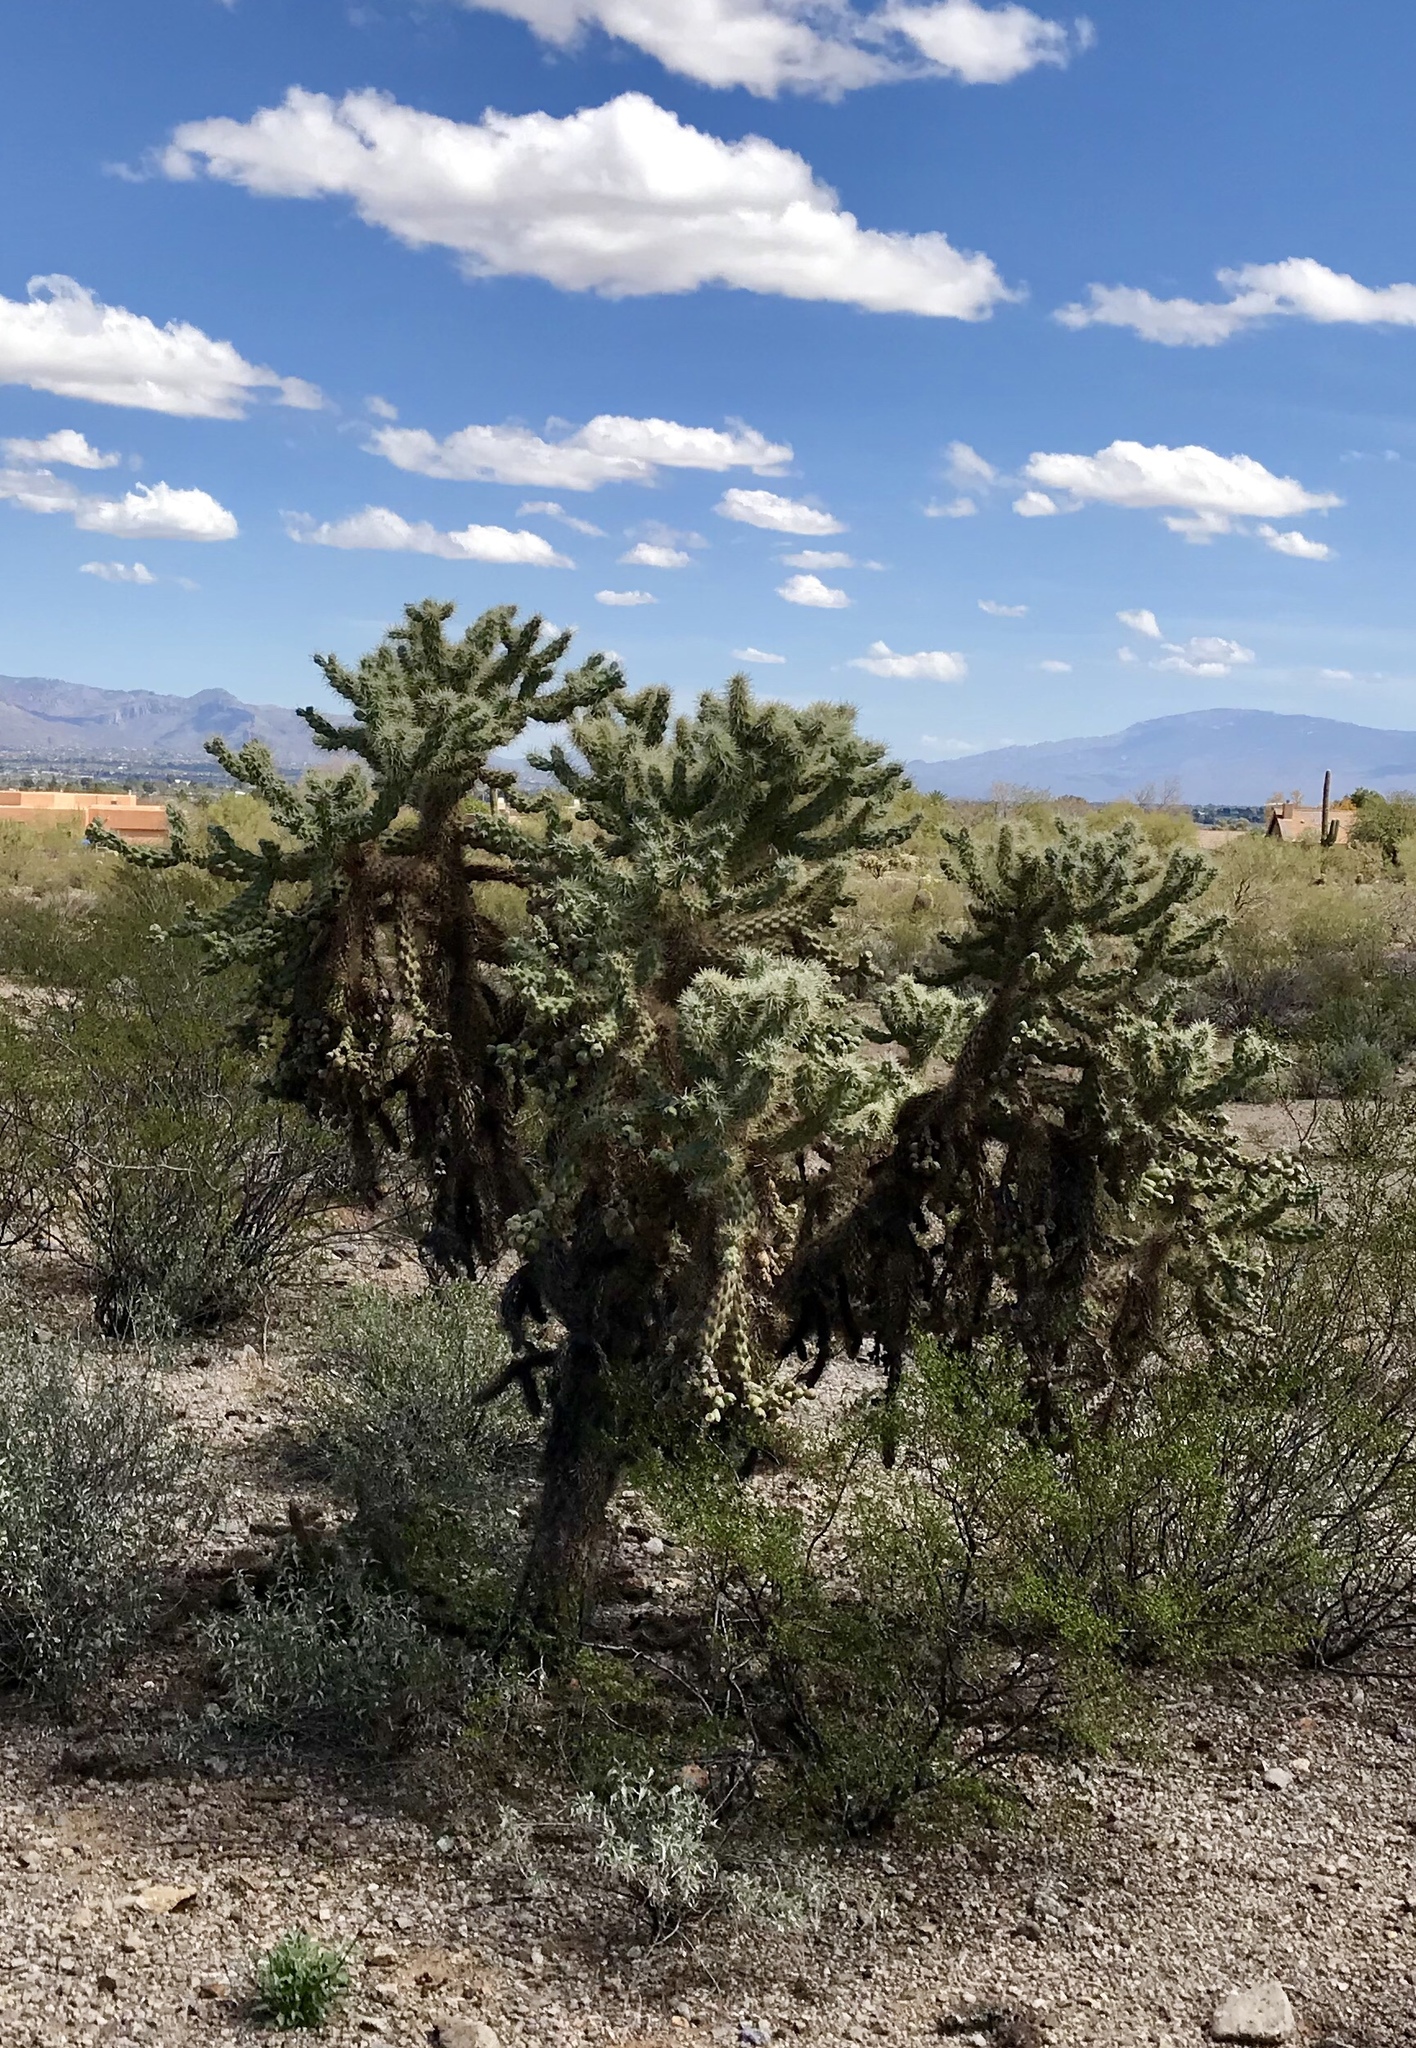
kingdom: Plantae
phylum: Tracheophyta
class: Magnoliopsida
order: Caryophyllales
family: Cactaceae
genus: Cylindropuntia
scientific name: Cylindropuntia fulgida
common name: Jumping cholla
